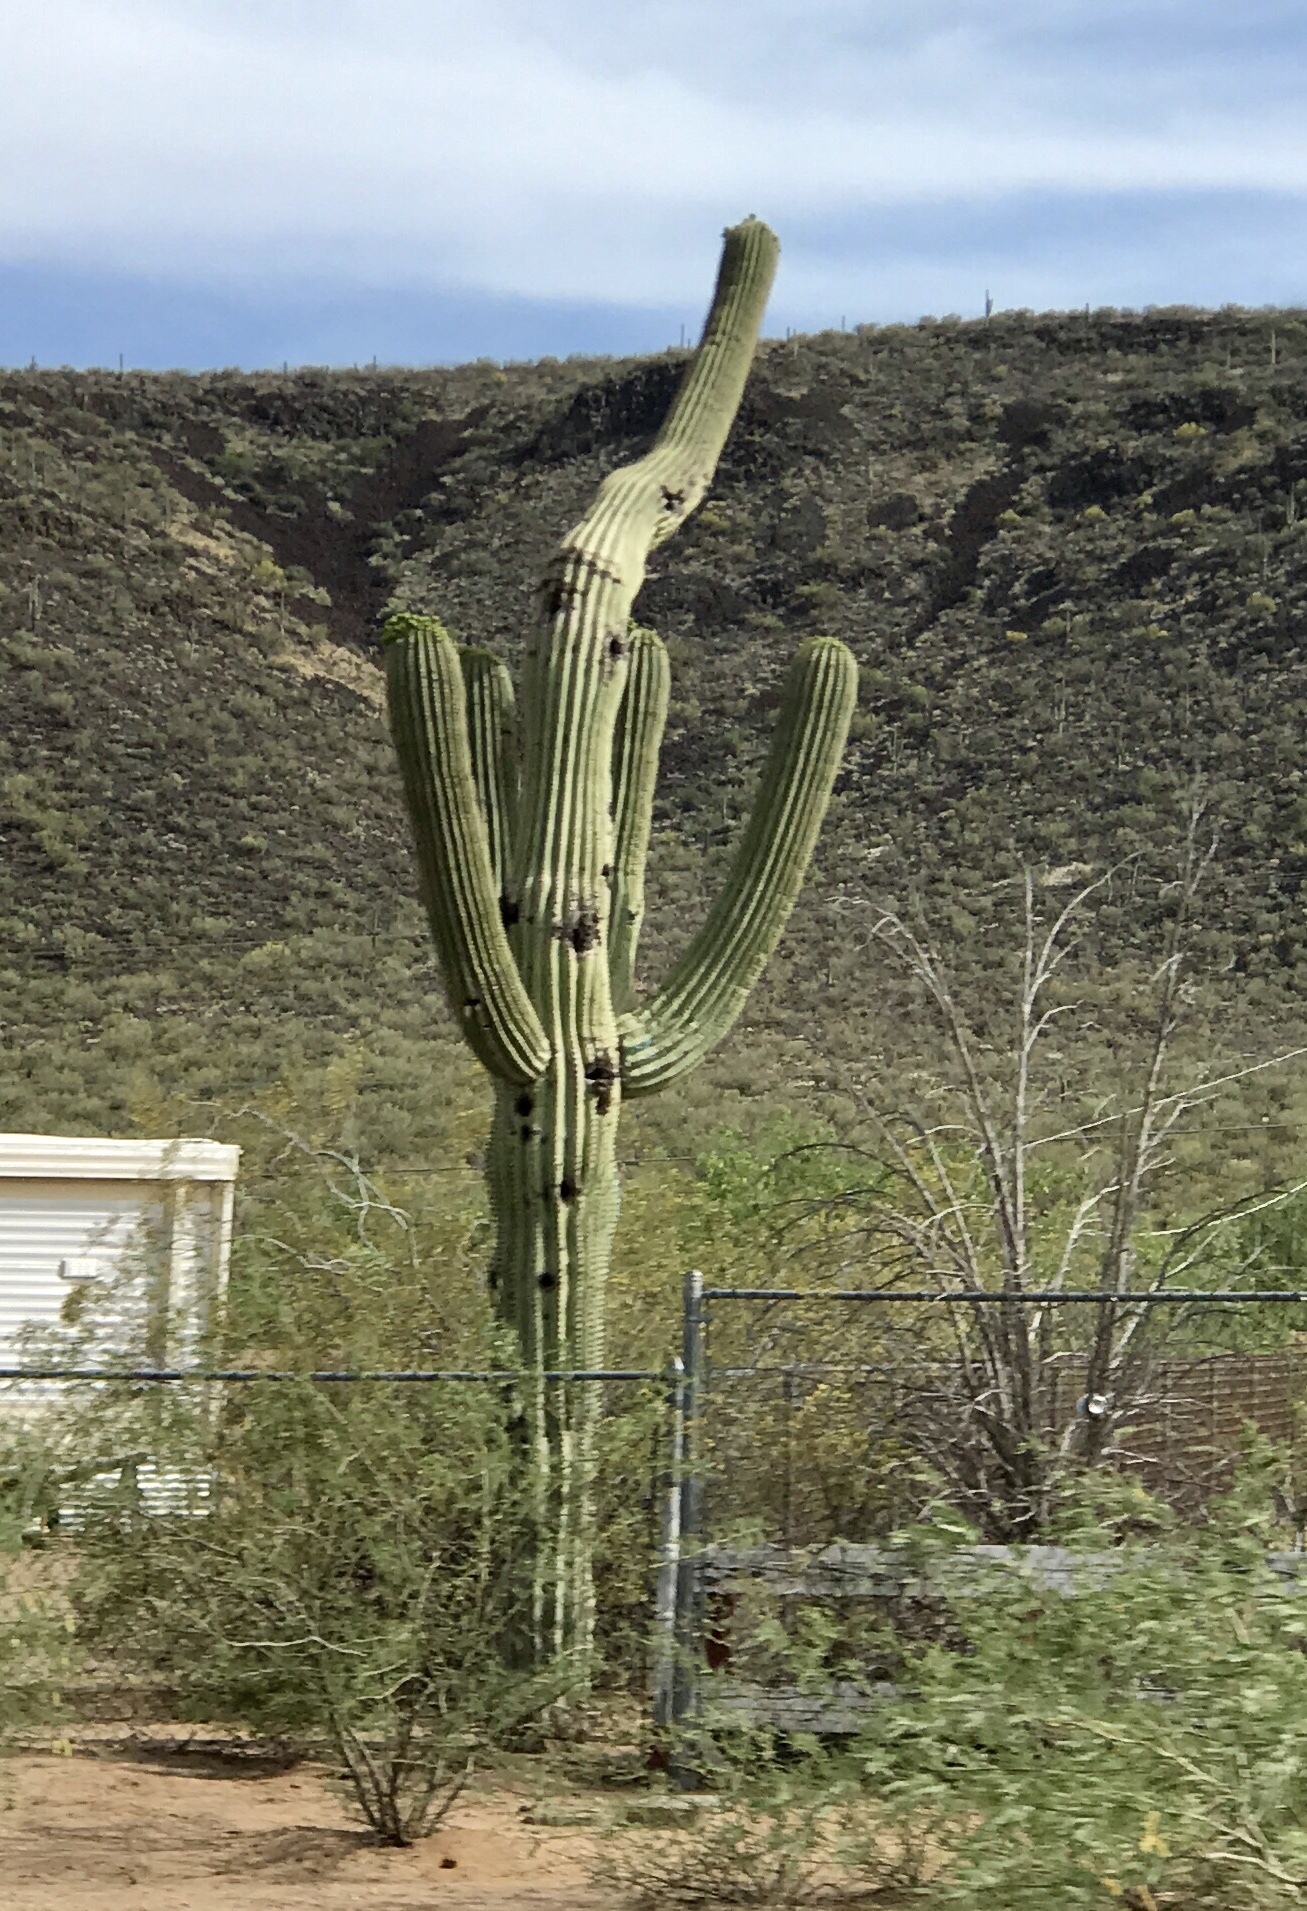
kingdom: Plantae
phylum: Tracheophyta
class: Magnoliopsida
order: Caryophyllales
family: Cactaceae
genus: Carnegiea
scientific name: Carnegiea gigantea
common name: Saguaro
